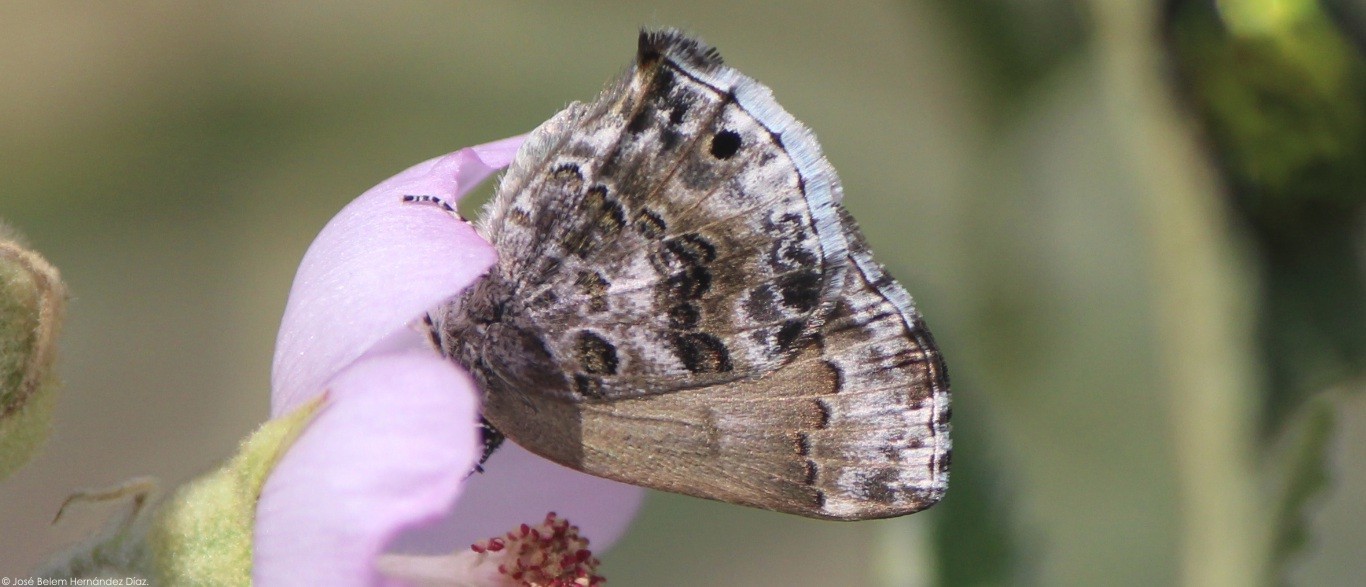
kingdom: Animalia
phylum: Arthropoda
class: Insecta
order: Lepidoptera
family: Lycaenidae
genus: Thecla
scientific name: Thecla cestri
